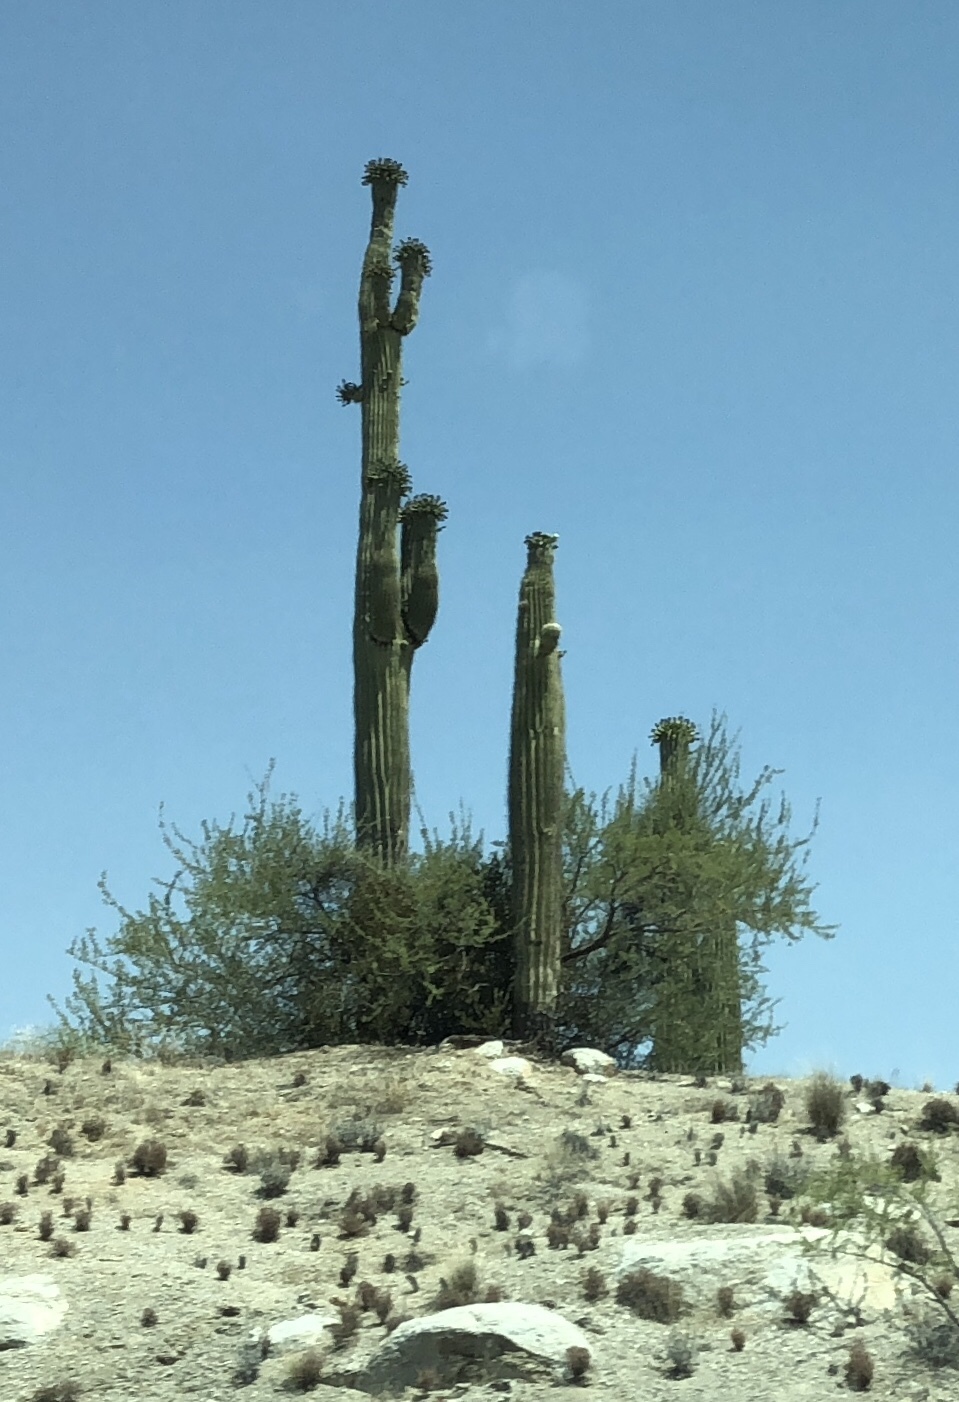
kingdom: Plantae
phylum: Tracheophyta
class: Magnoliopsida
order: Caryophyllales
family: Cactaceae
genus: Carnegiea
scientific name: Carnegiea gigantea
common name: Saguaro
